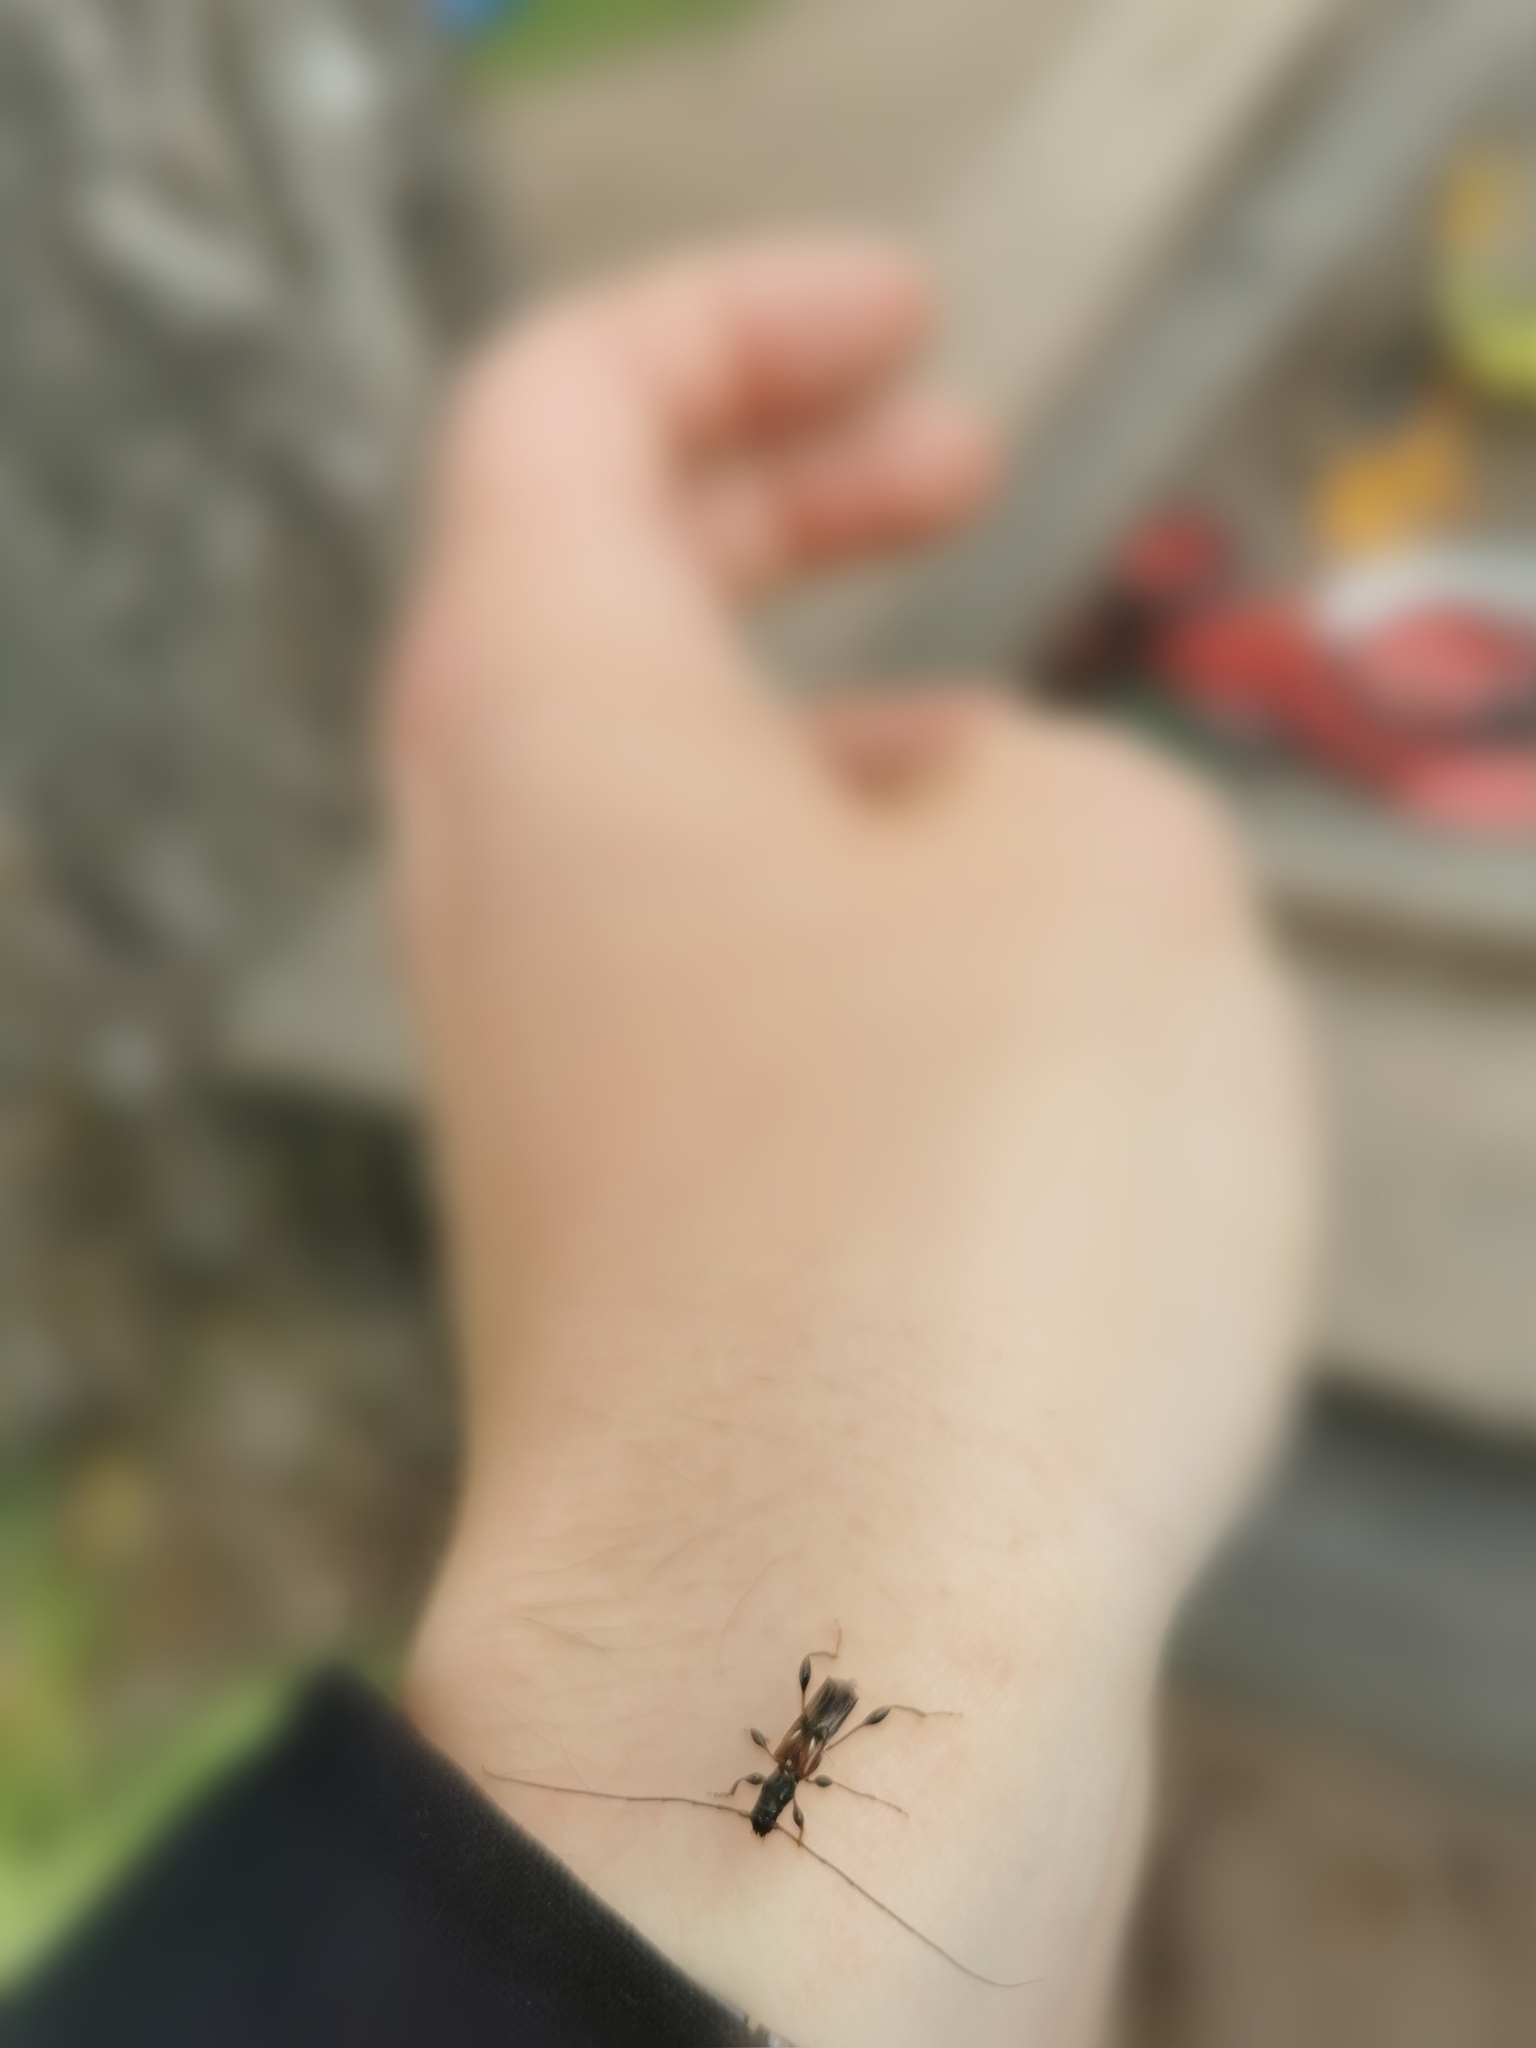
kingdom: Animalia
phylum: Arthropoda
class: Insecta
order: Coleoptera
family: Cerambycidae
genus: Molorchus
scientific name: Molorchus minor
